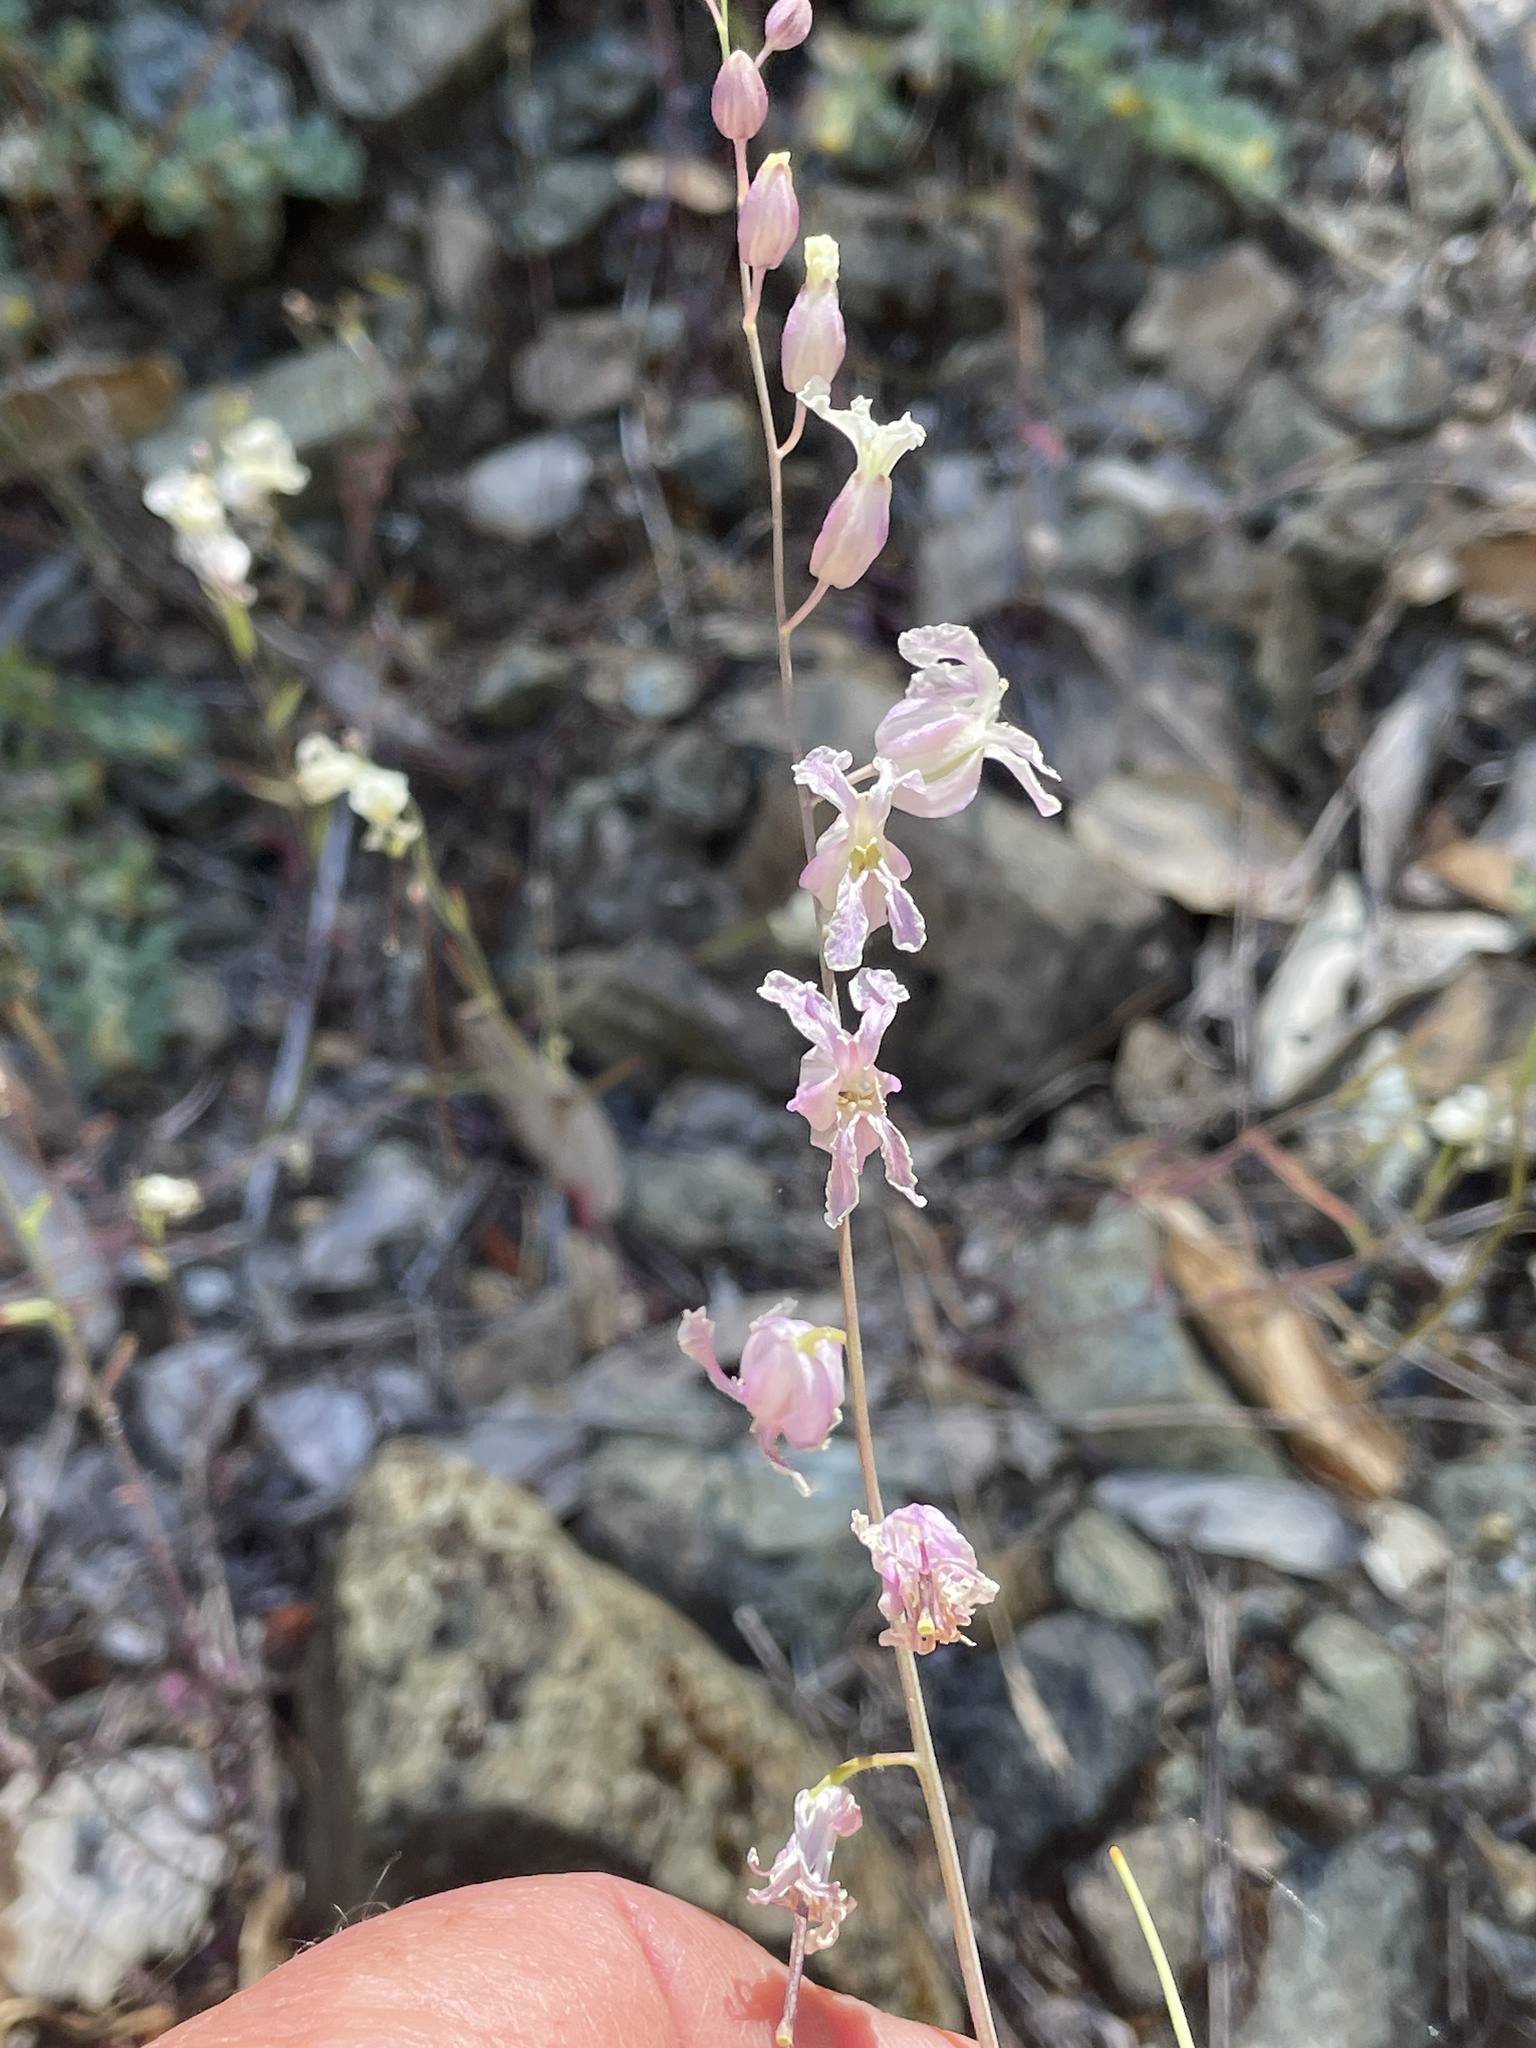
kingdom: Plantae
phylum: Tracheophyta
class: Magnoliopsida
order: Brassicales
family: Brassicaceae
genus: Streptanthus
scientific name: Streptanthus glandulosus
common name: Jewel-flower
